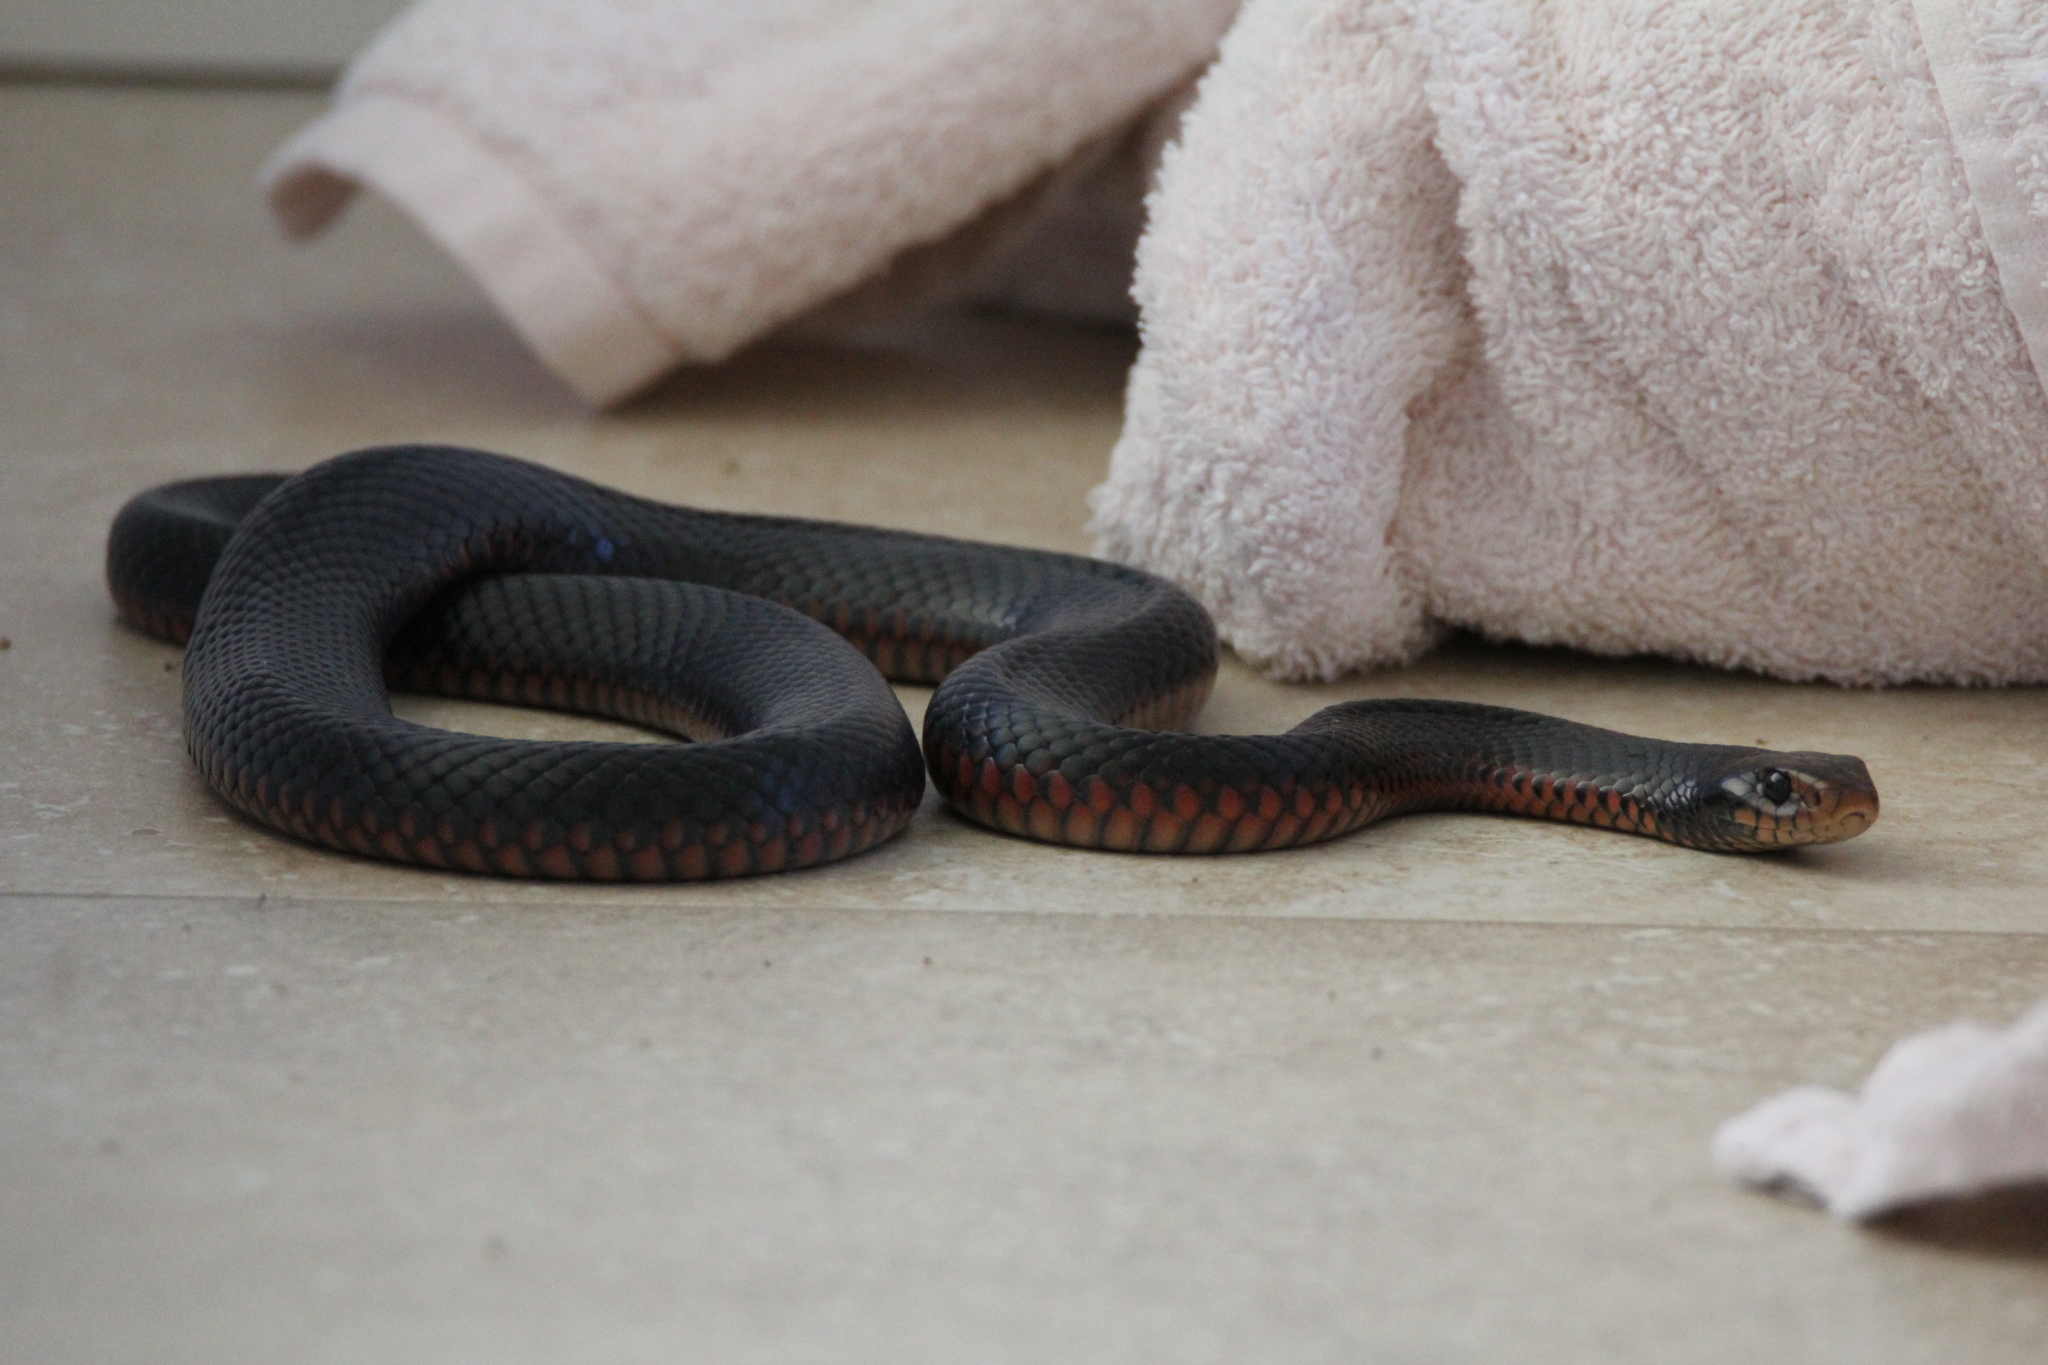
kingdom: Animalia
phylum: Chordata
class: Squamata
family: Elapidae
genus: Pseudechis
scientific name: Pseudechis porphyriacus
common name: Australian black snake
